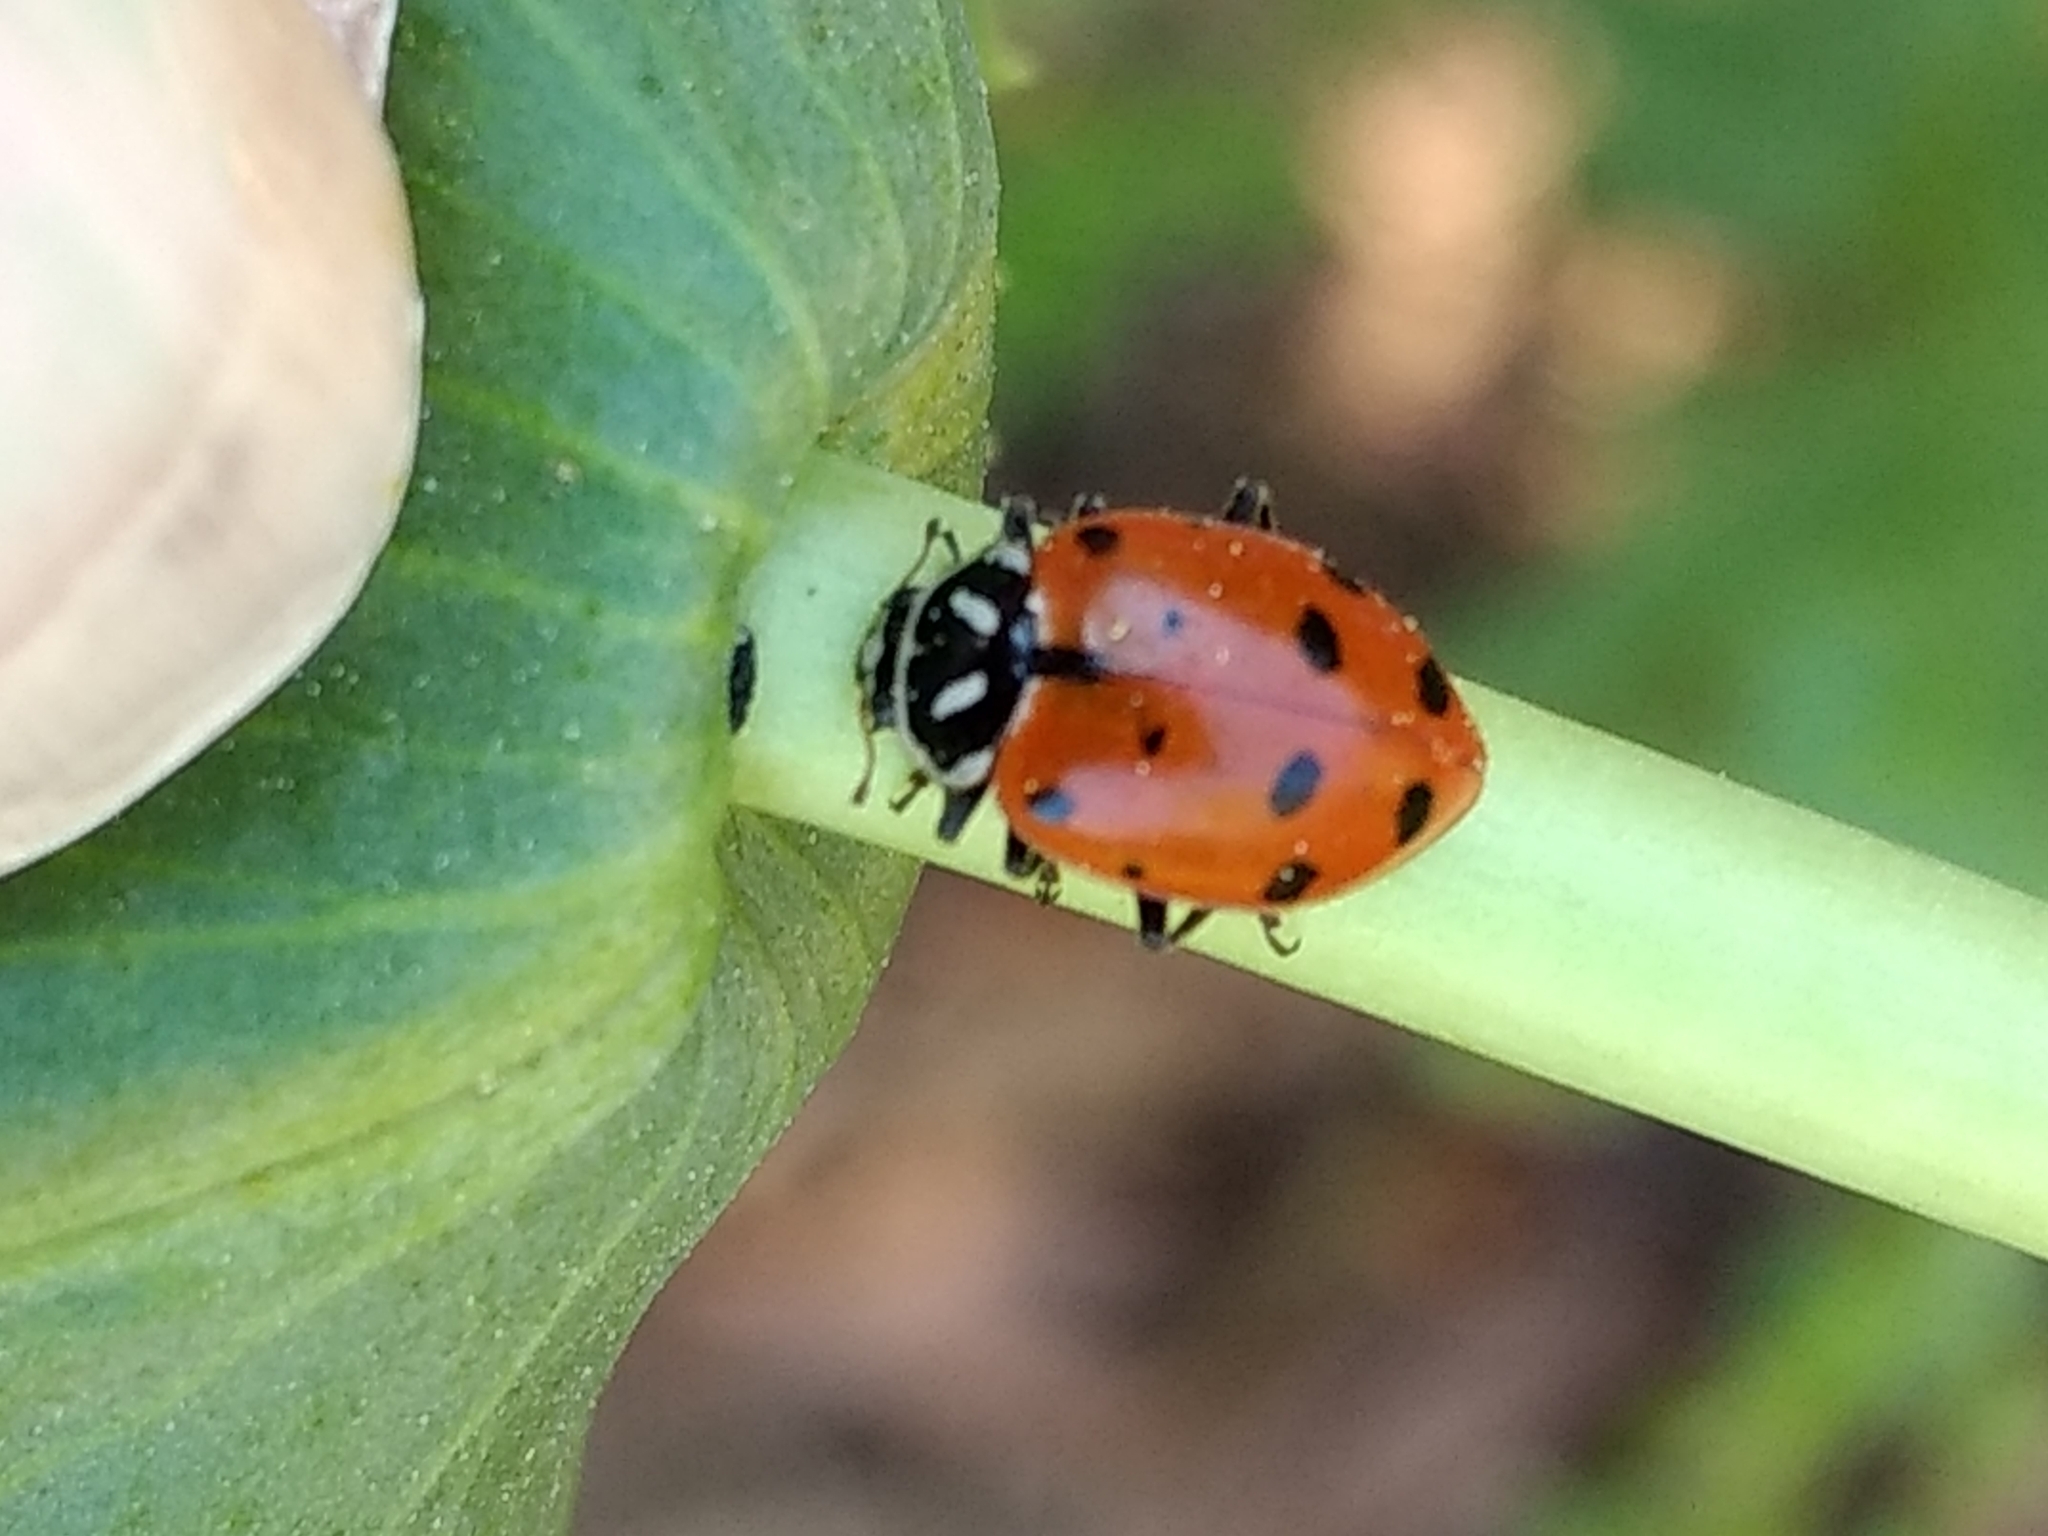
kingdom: Animalia
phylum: Arthropoda
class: Insecta
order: Coleoptera
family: Coccinellidae
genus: Hippodamia
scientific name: Hippodamia convergens
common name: Convergent lady beetle
